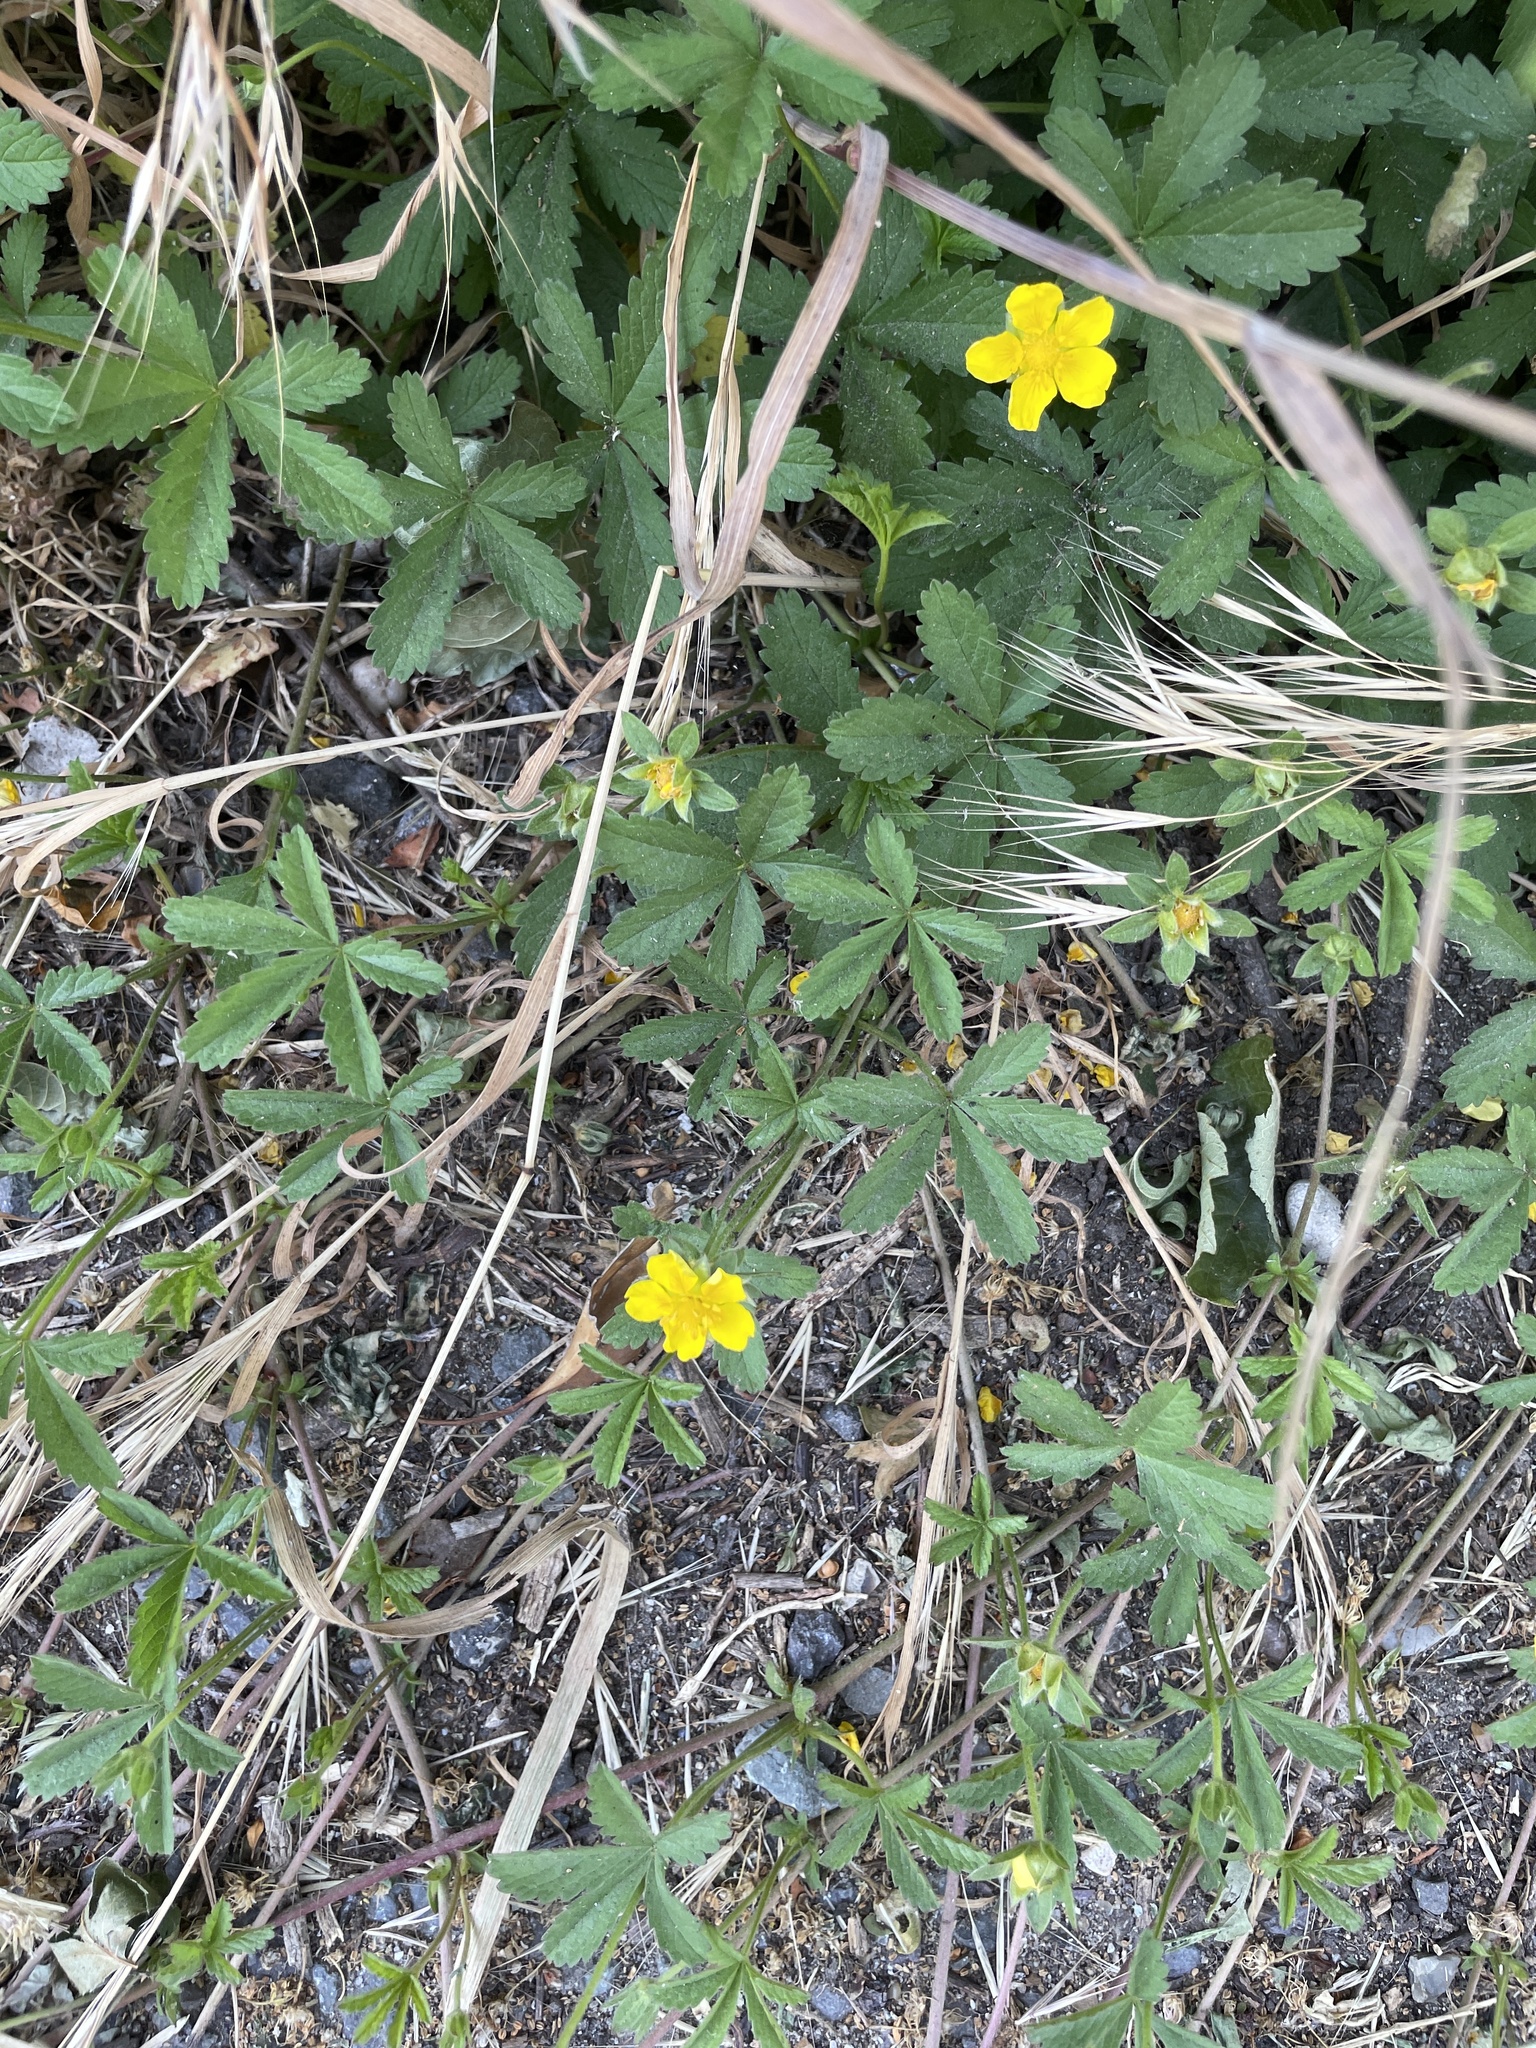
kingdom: Plantae
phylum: Tracheophyta
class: Magnoliopsida
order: Rosales
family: Rosaceae
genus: Potentilla
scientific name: Potentilla reptans
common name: Creeping cinquefoil
